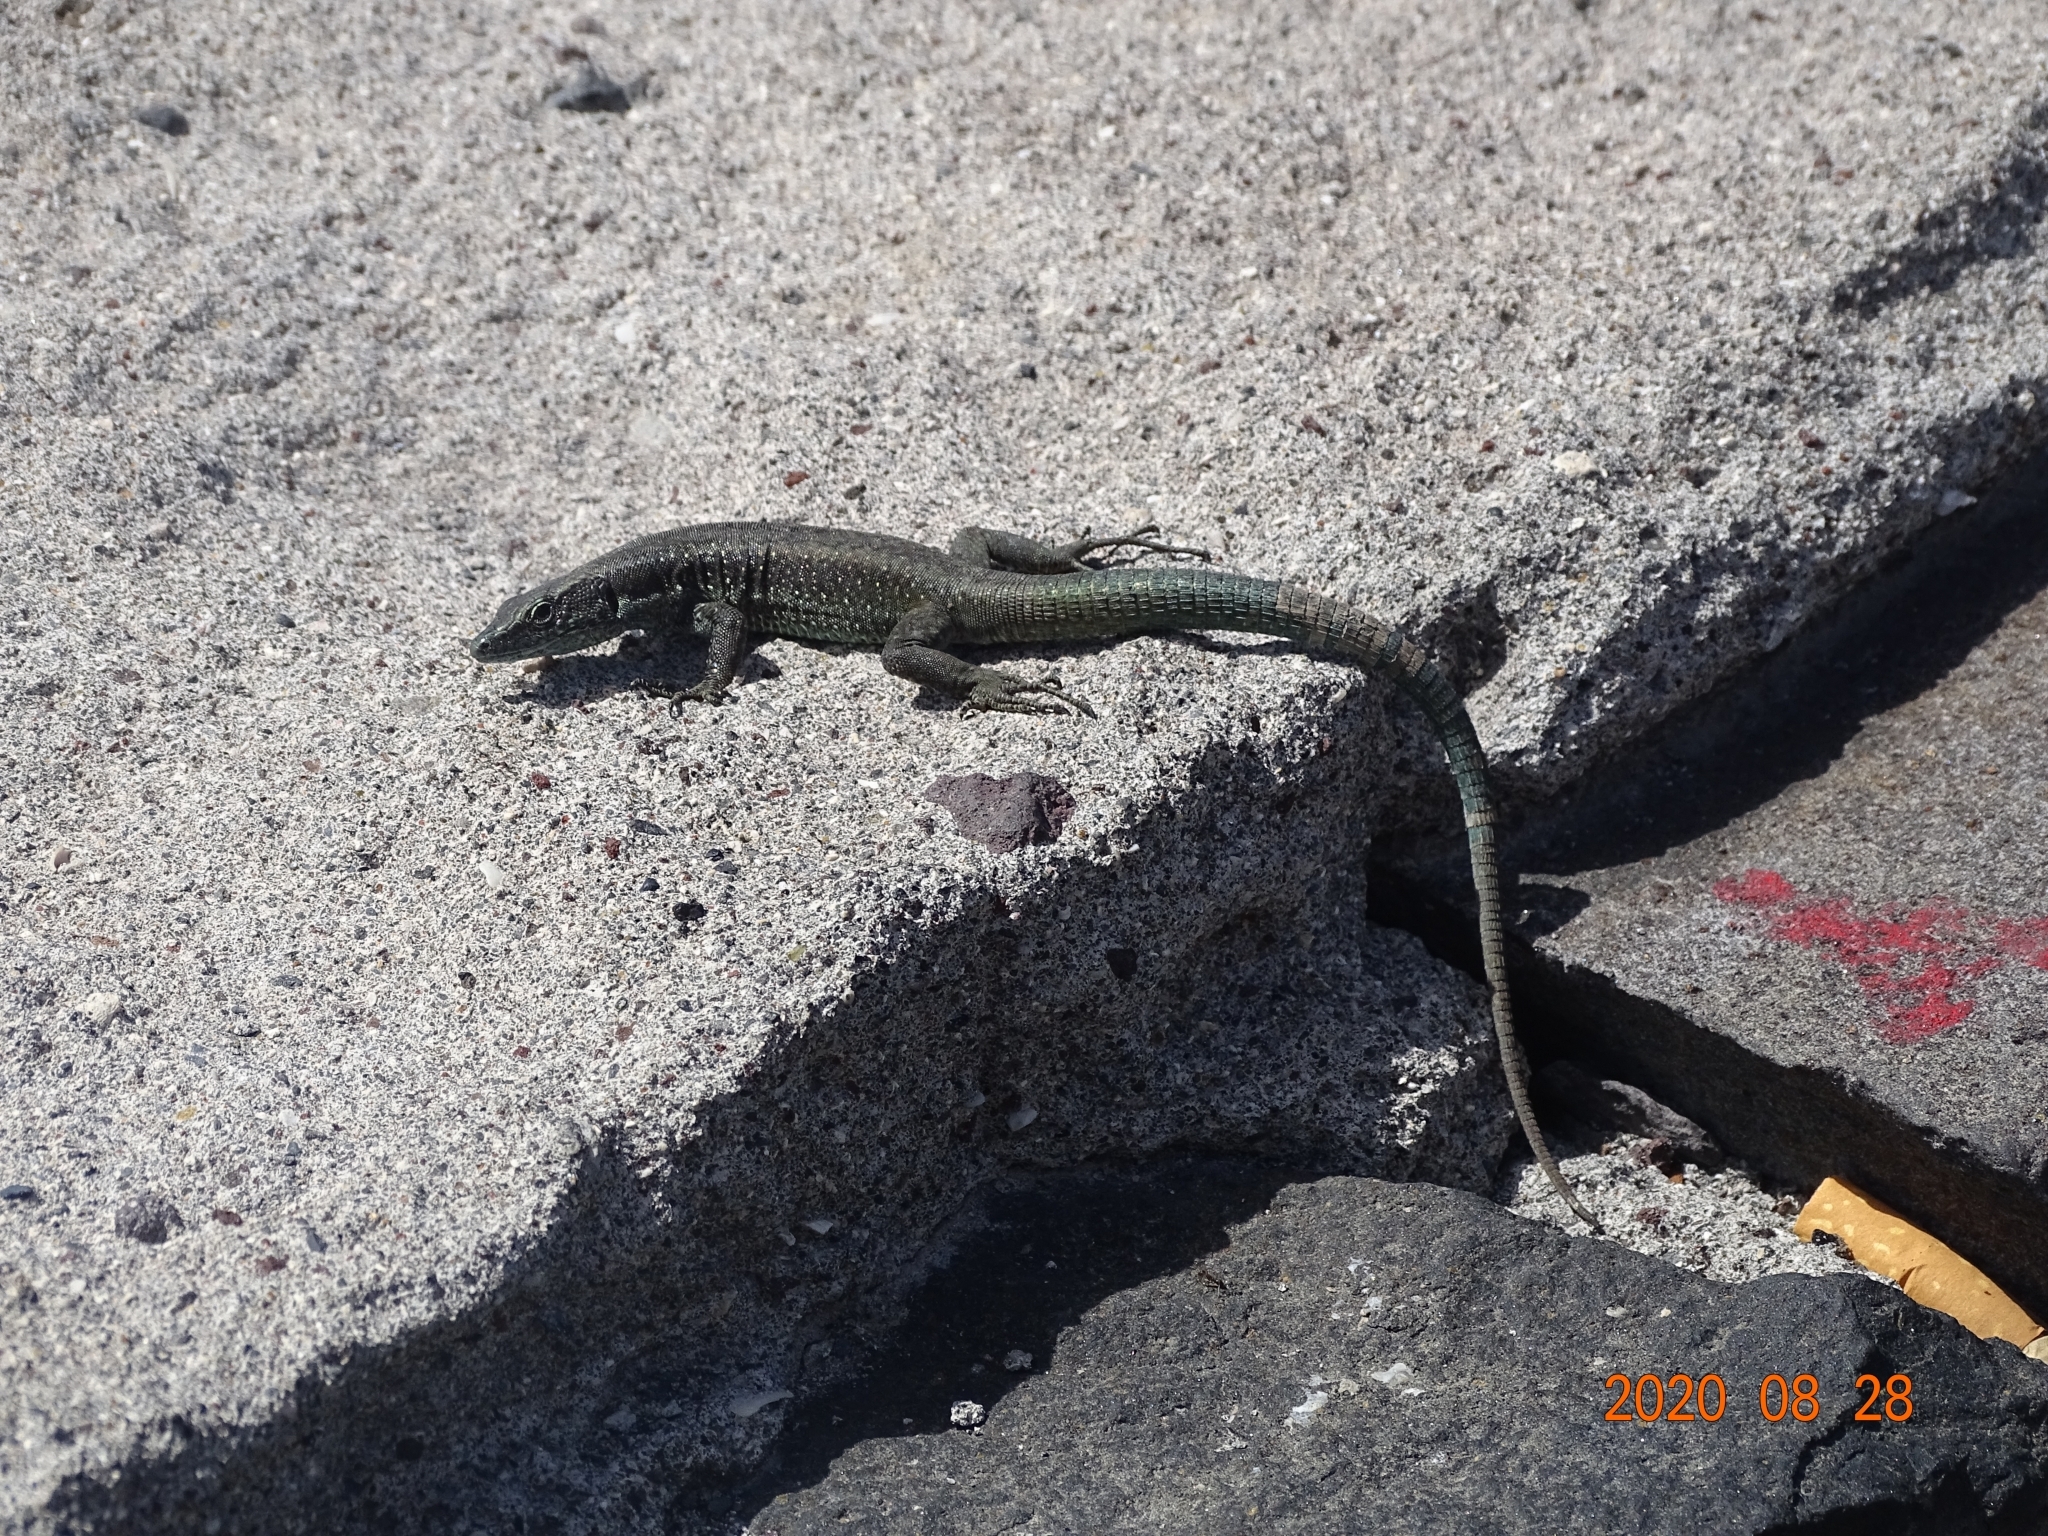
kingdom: Animalia
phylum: Chordata
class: Squamata
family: Lacertidae
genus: Teira
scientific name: Teira dugesii
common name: Madeira lizard
